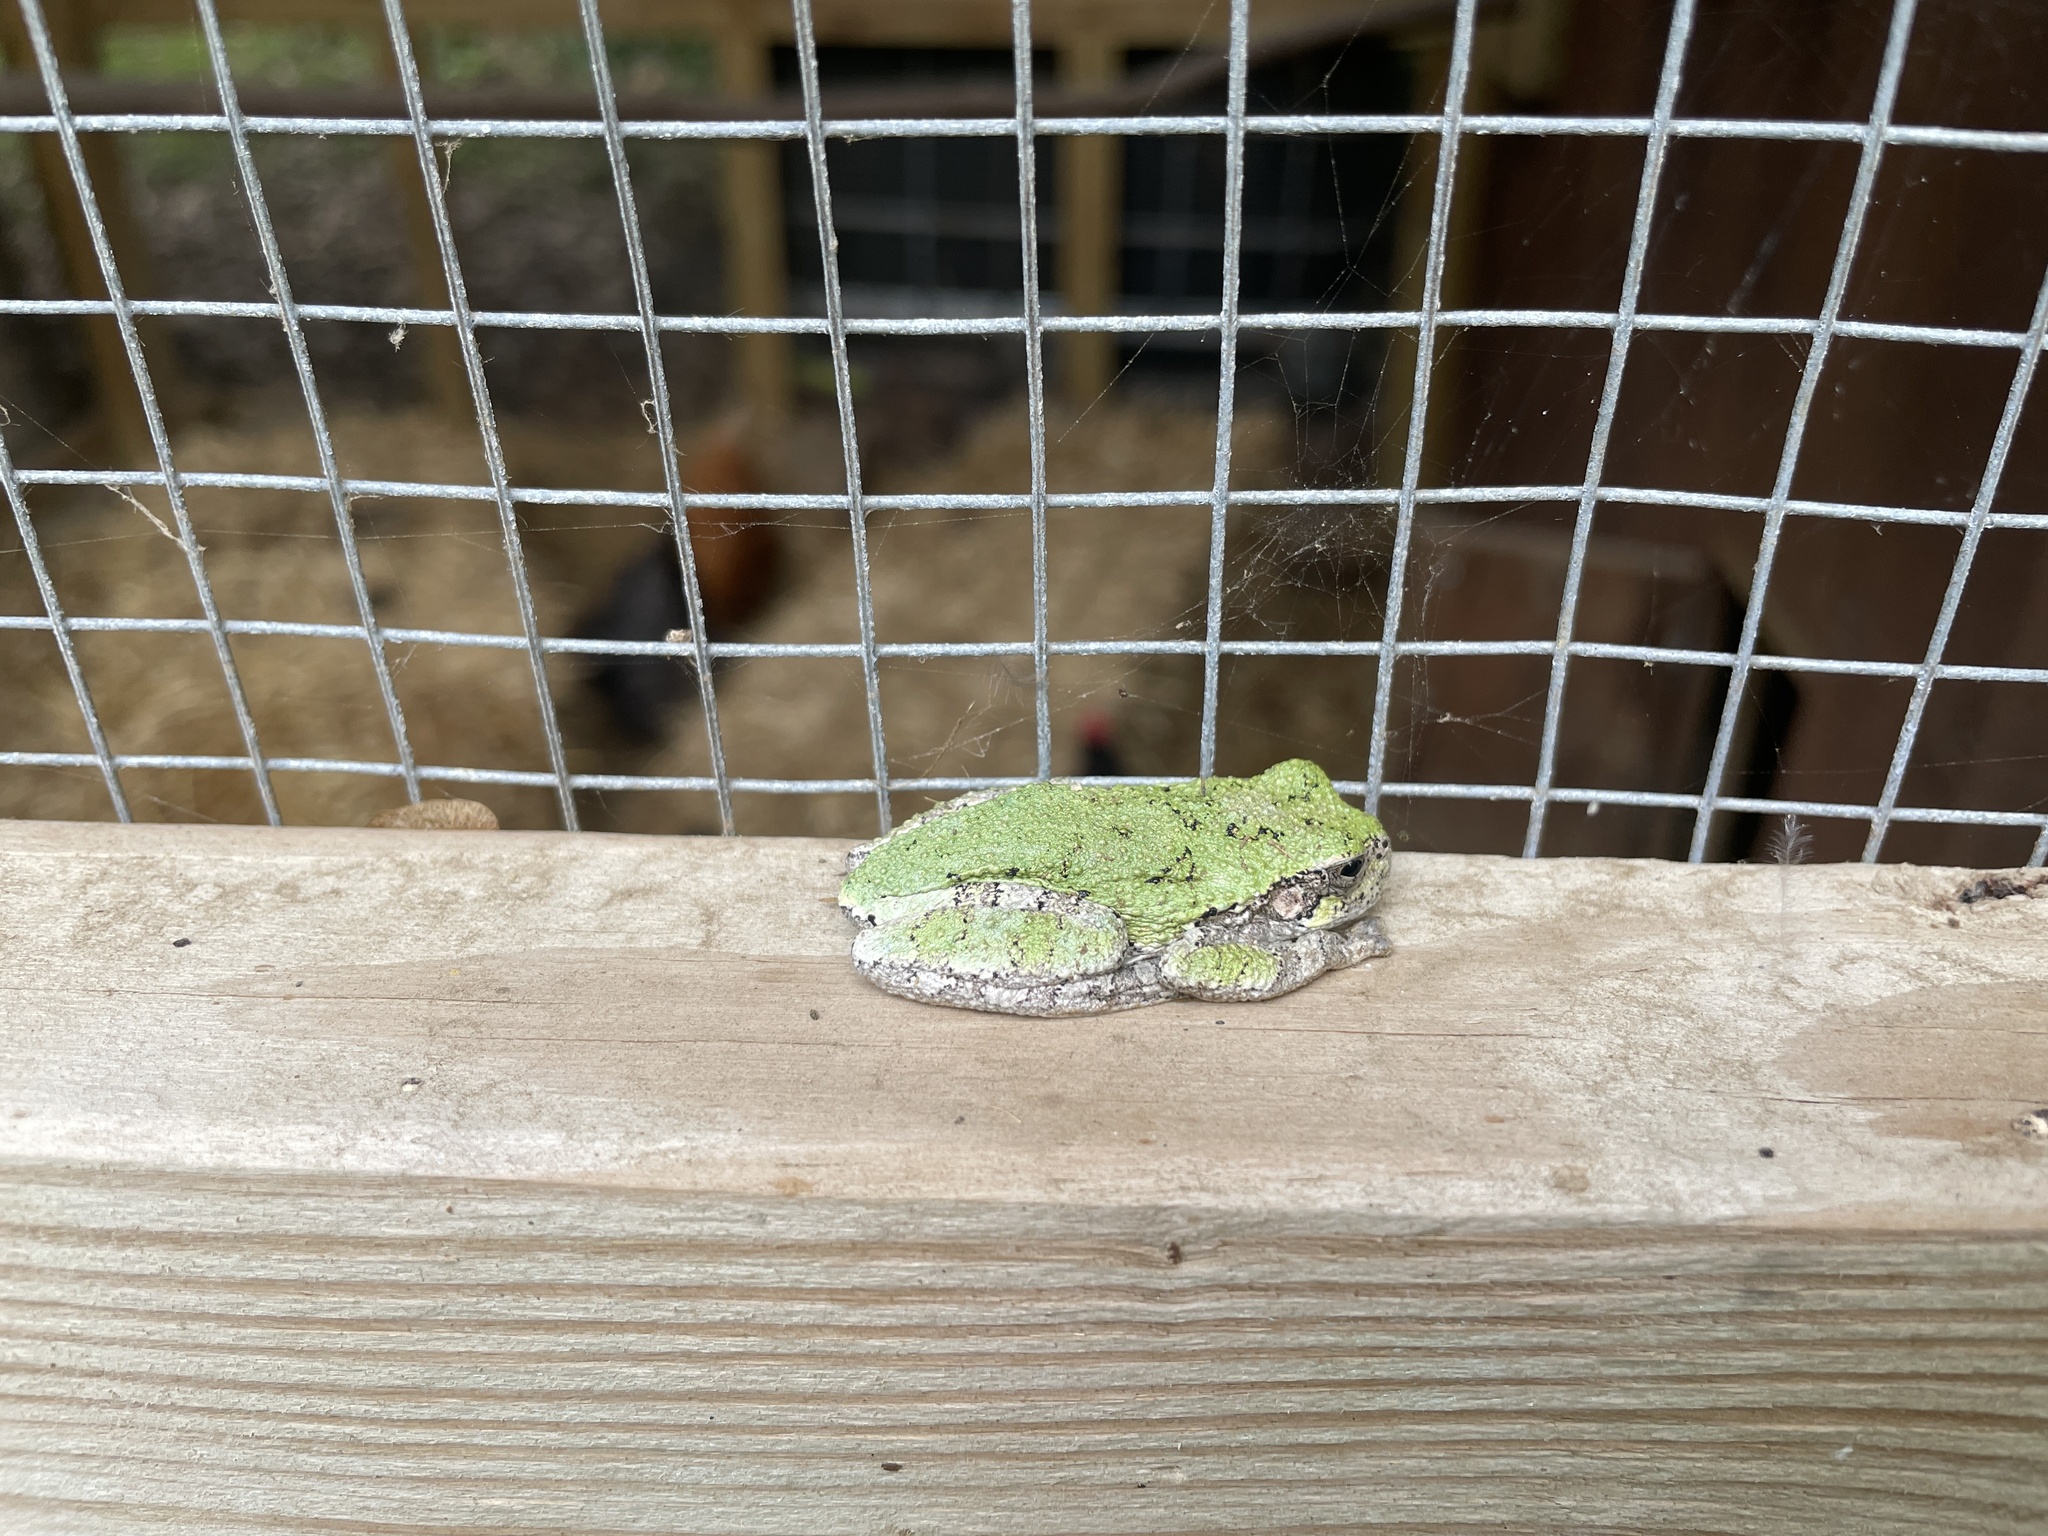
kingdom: Animalia
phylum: Chordata
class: Amphibia
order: Anura
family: Hylidae
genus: Dryophytes
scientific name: Dryophytes versicolor
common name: Gray treefrog
